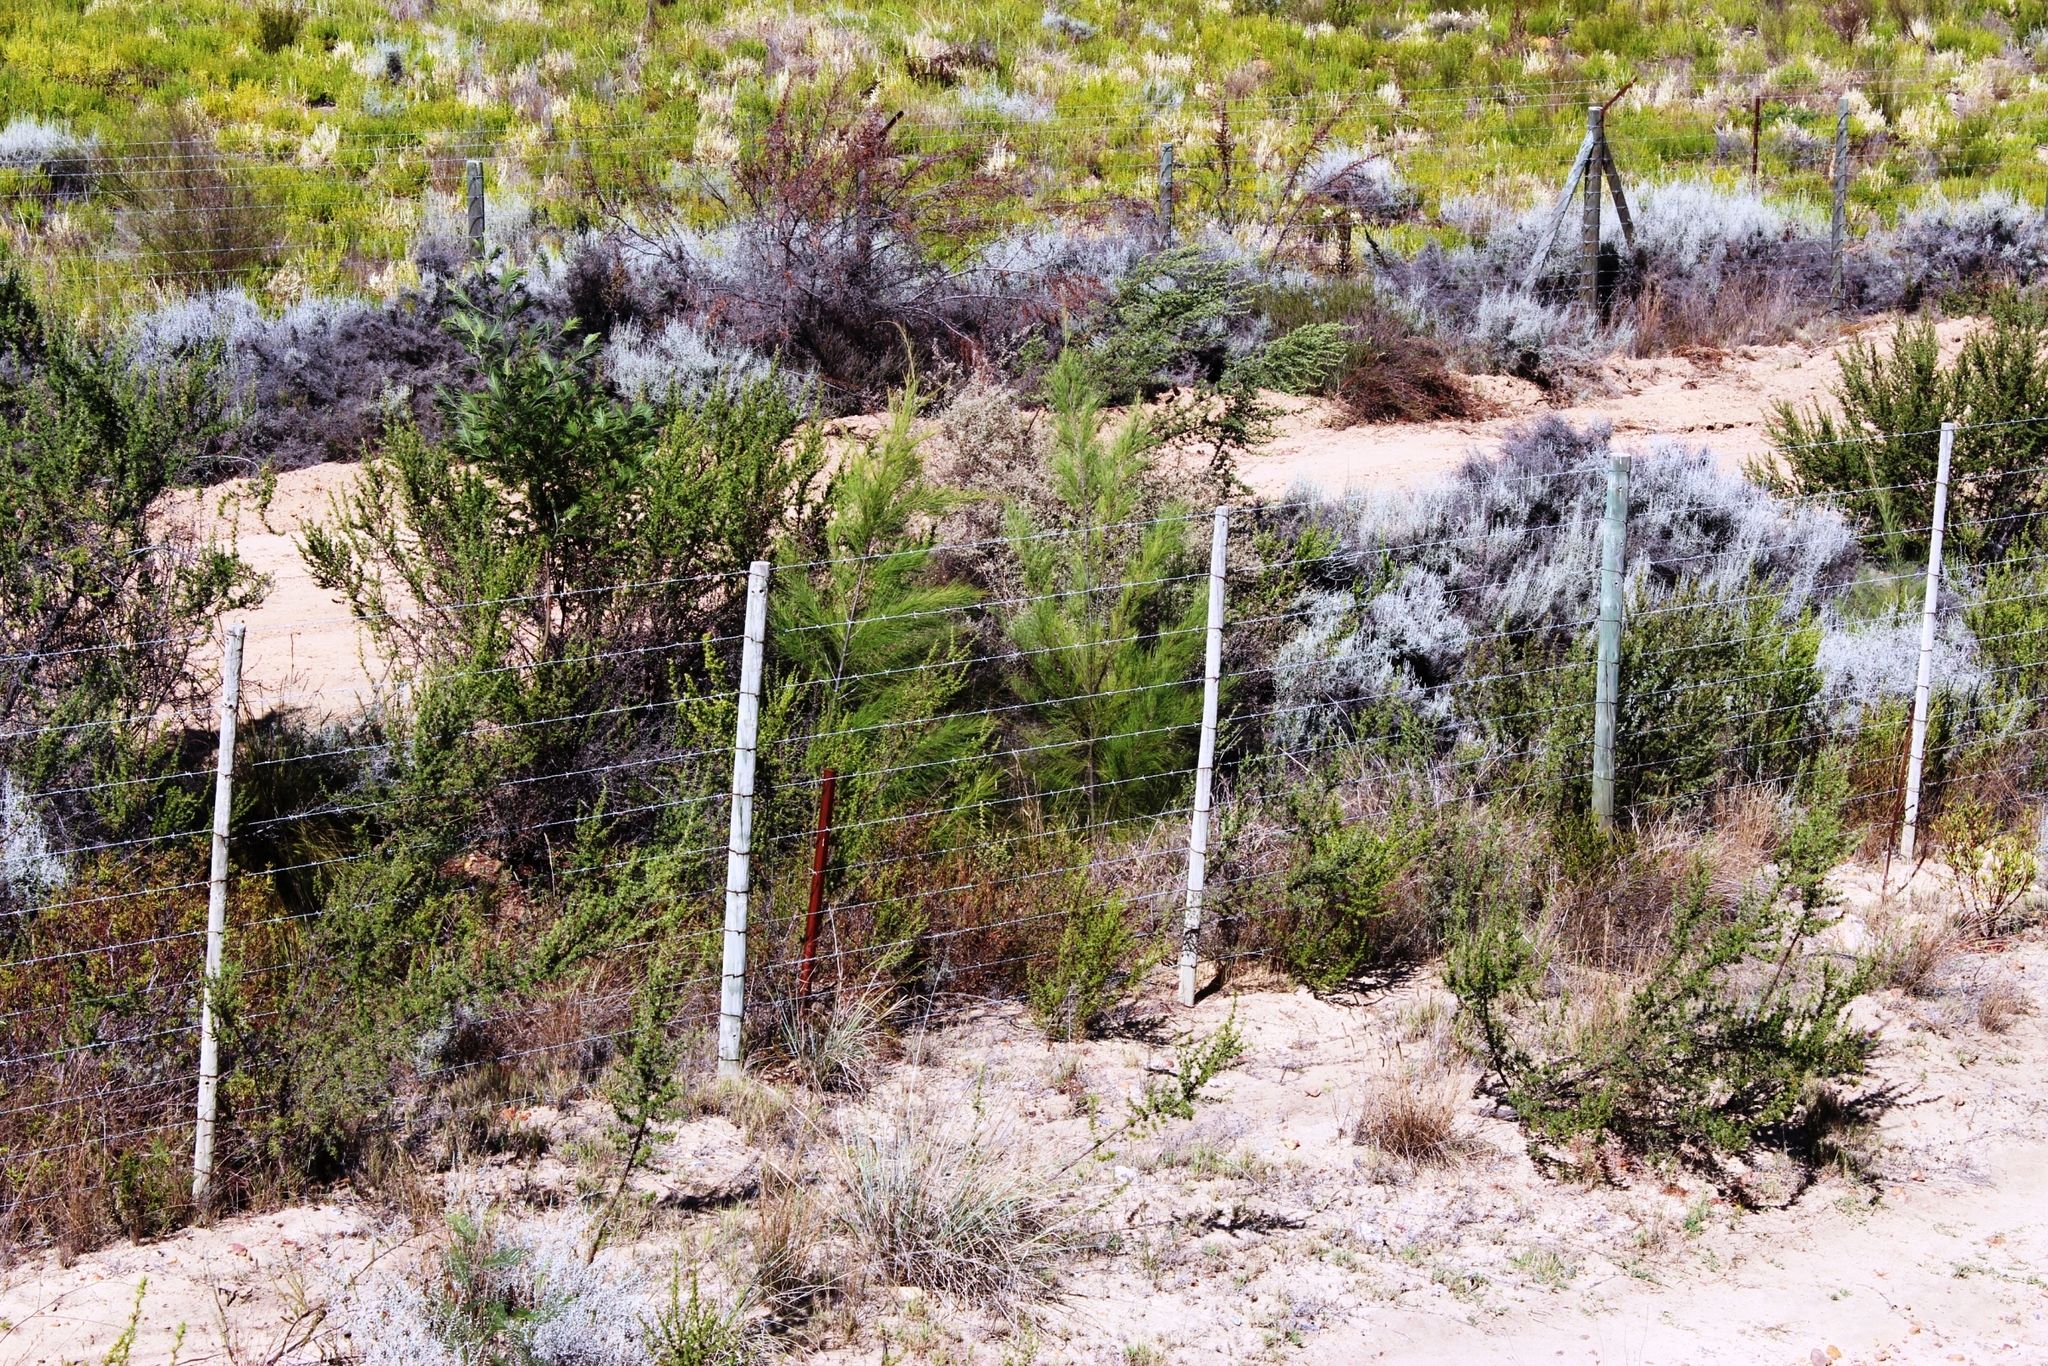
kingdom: Plantae
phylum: Tracheophyta
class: Magnoliopsida
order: Fagales
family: Casuarinaceae
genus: Casuarina
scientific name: Casuarina cunninghamiana
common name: River sheoak
